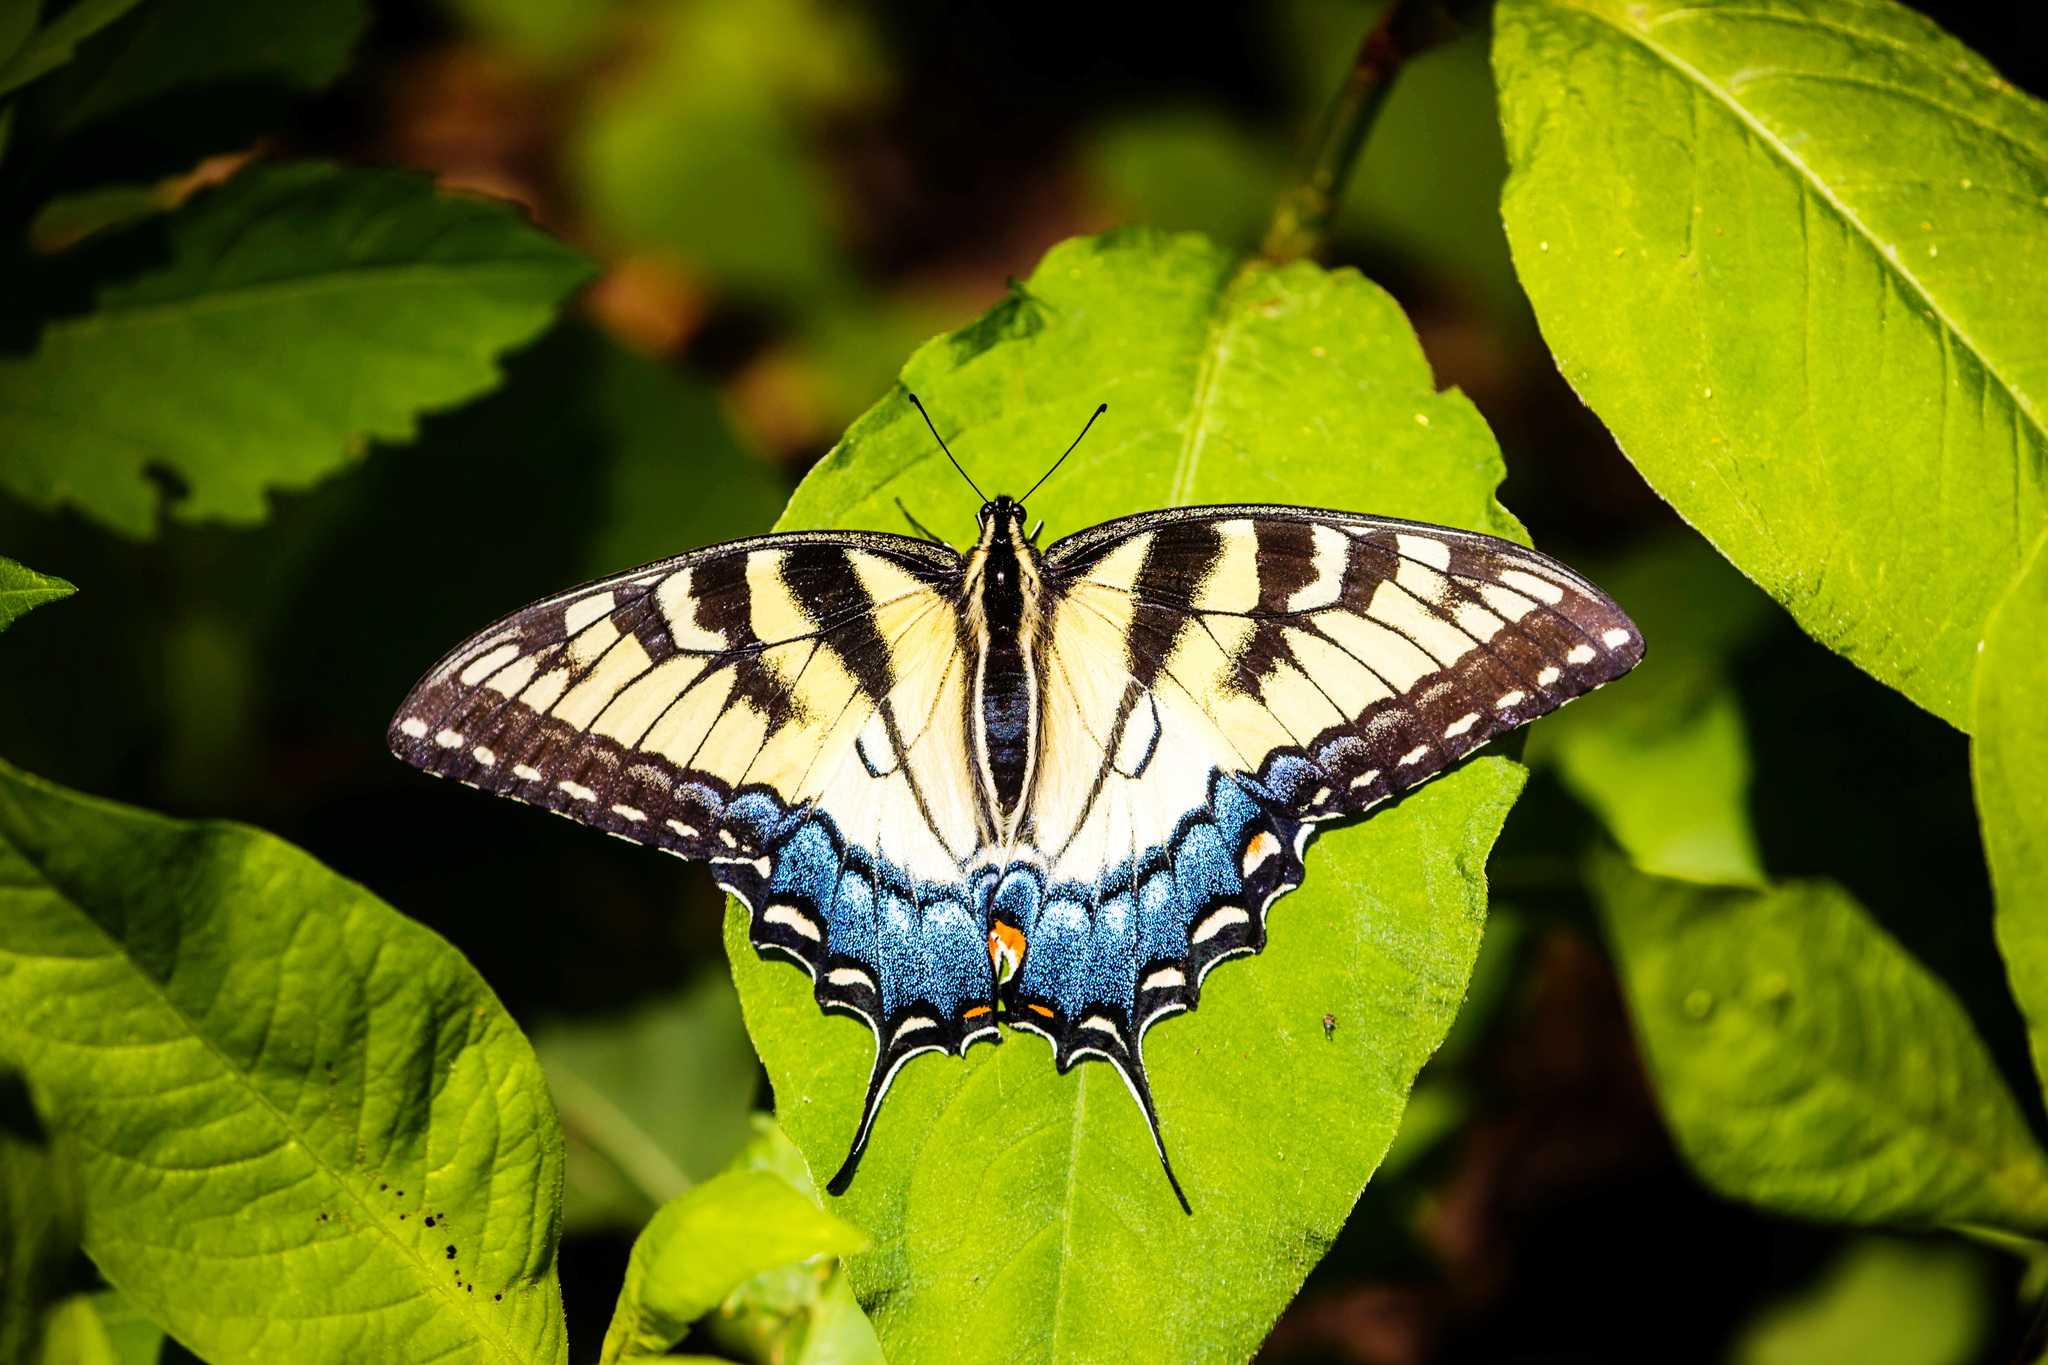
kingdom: Animalia
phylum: Arthropoda
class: Insecta
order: Lepidoptera
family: Papilionidae
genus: Papilio
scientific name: Papilio glaucus
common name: Tiger swallowtail
